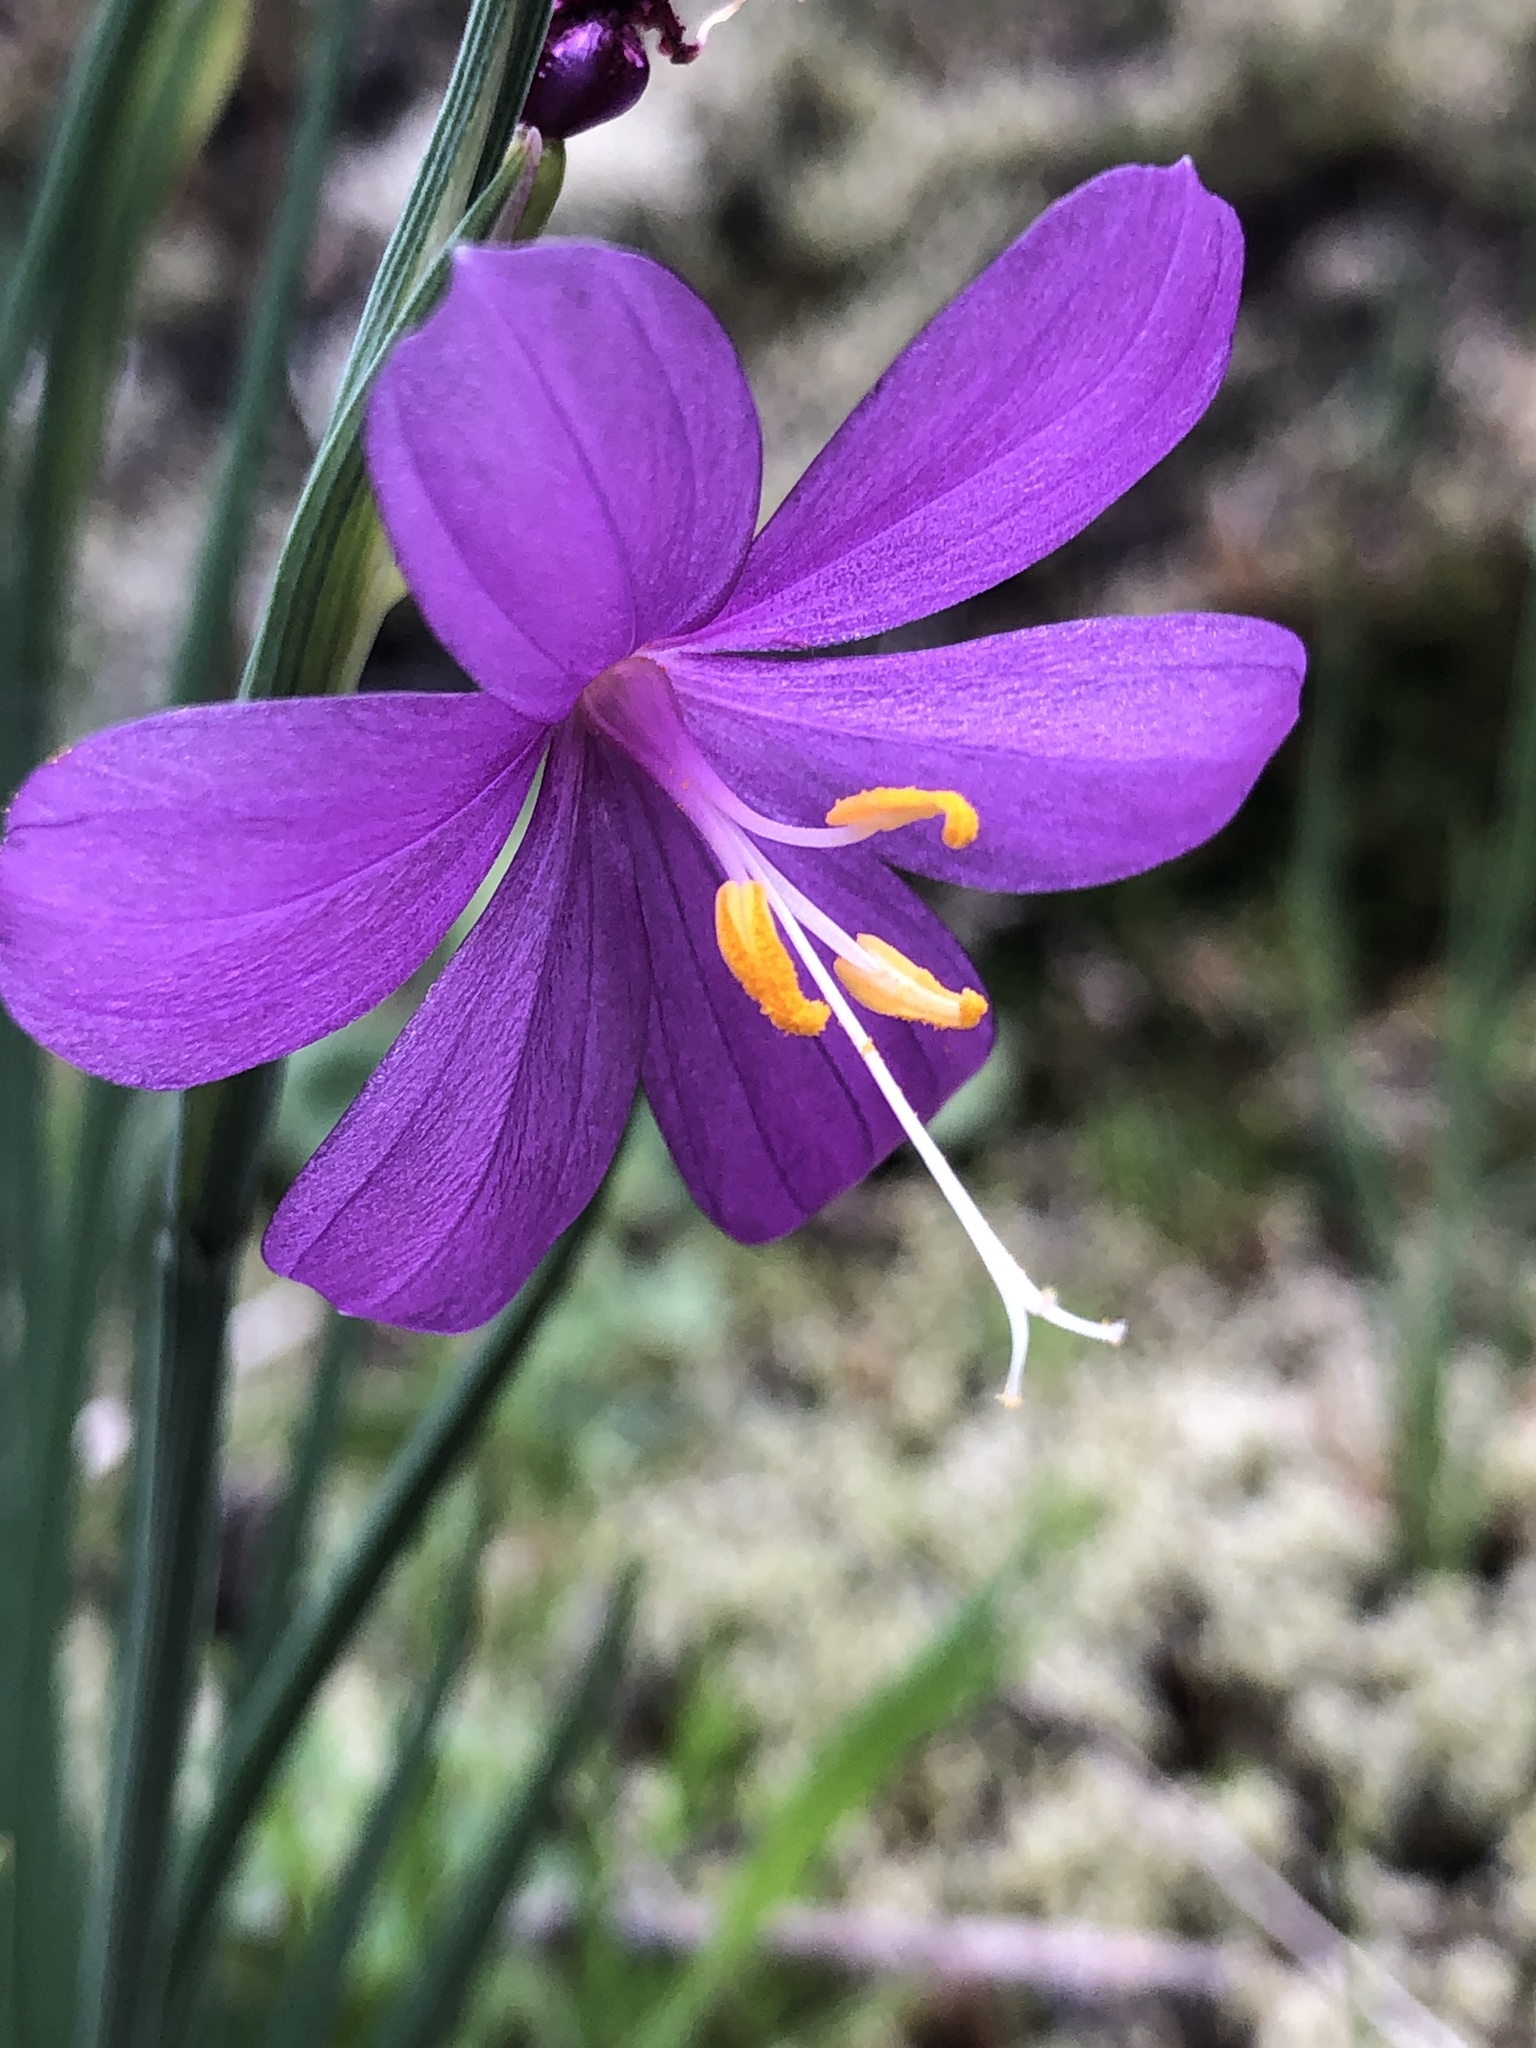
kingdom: Plantae
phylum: Tracheophyta
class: Liliopsida
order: Asparagales
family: Iridaceae
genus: Olsynium
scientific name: Olsynium douglasii
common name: Douglas' grasswidow
